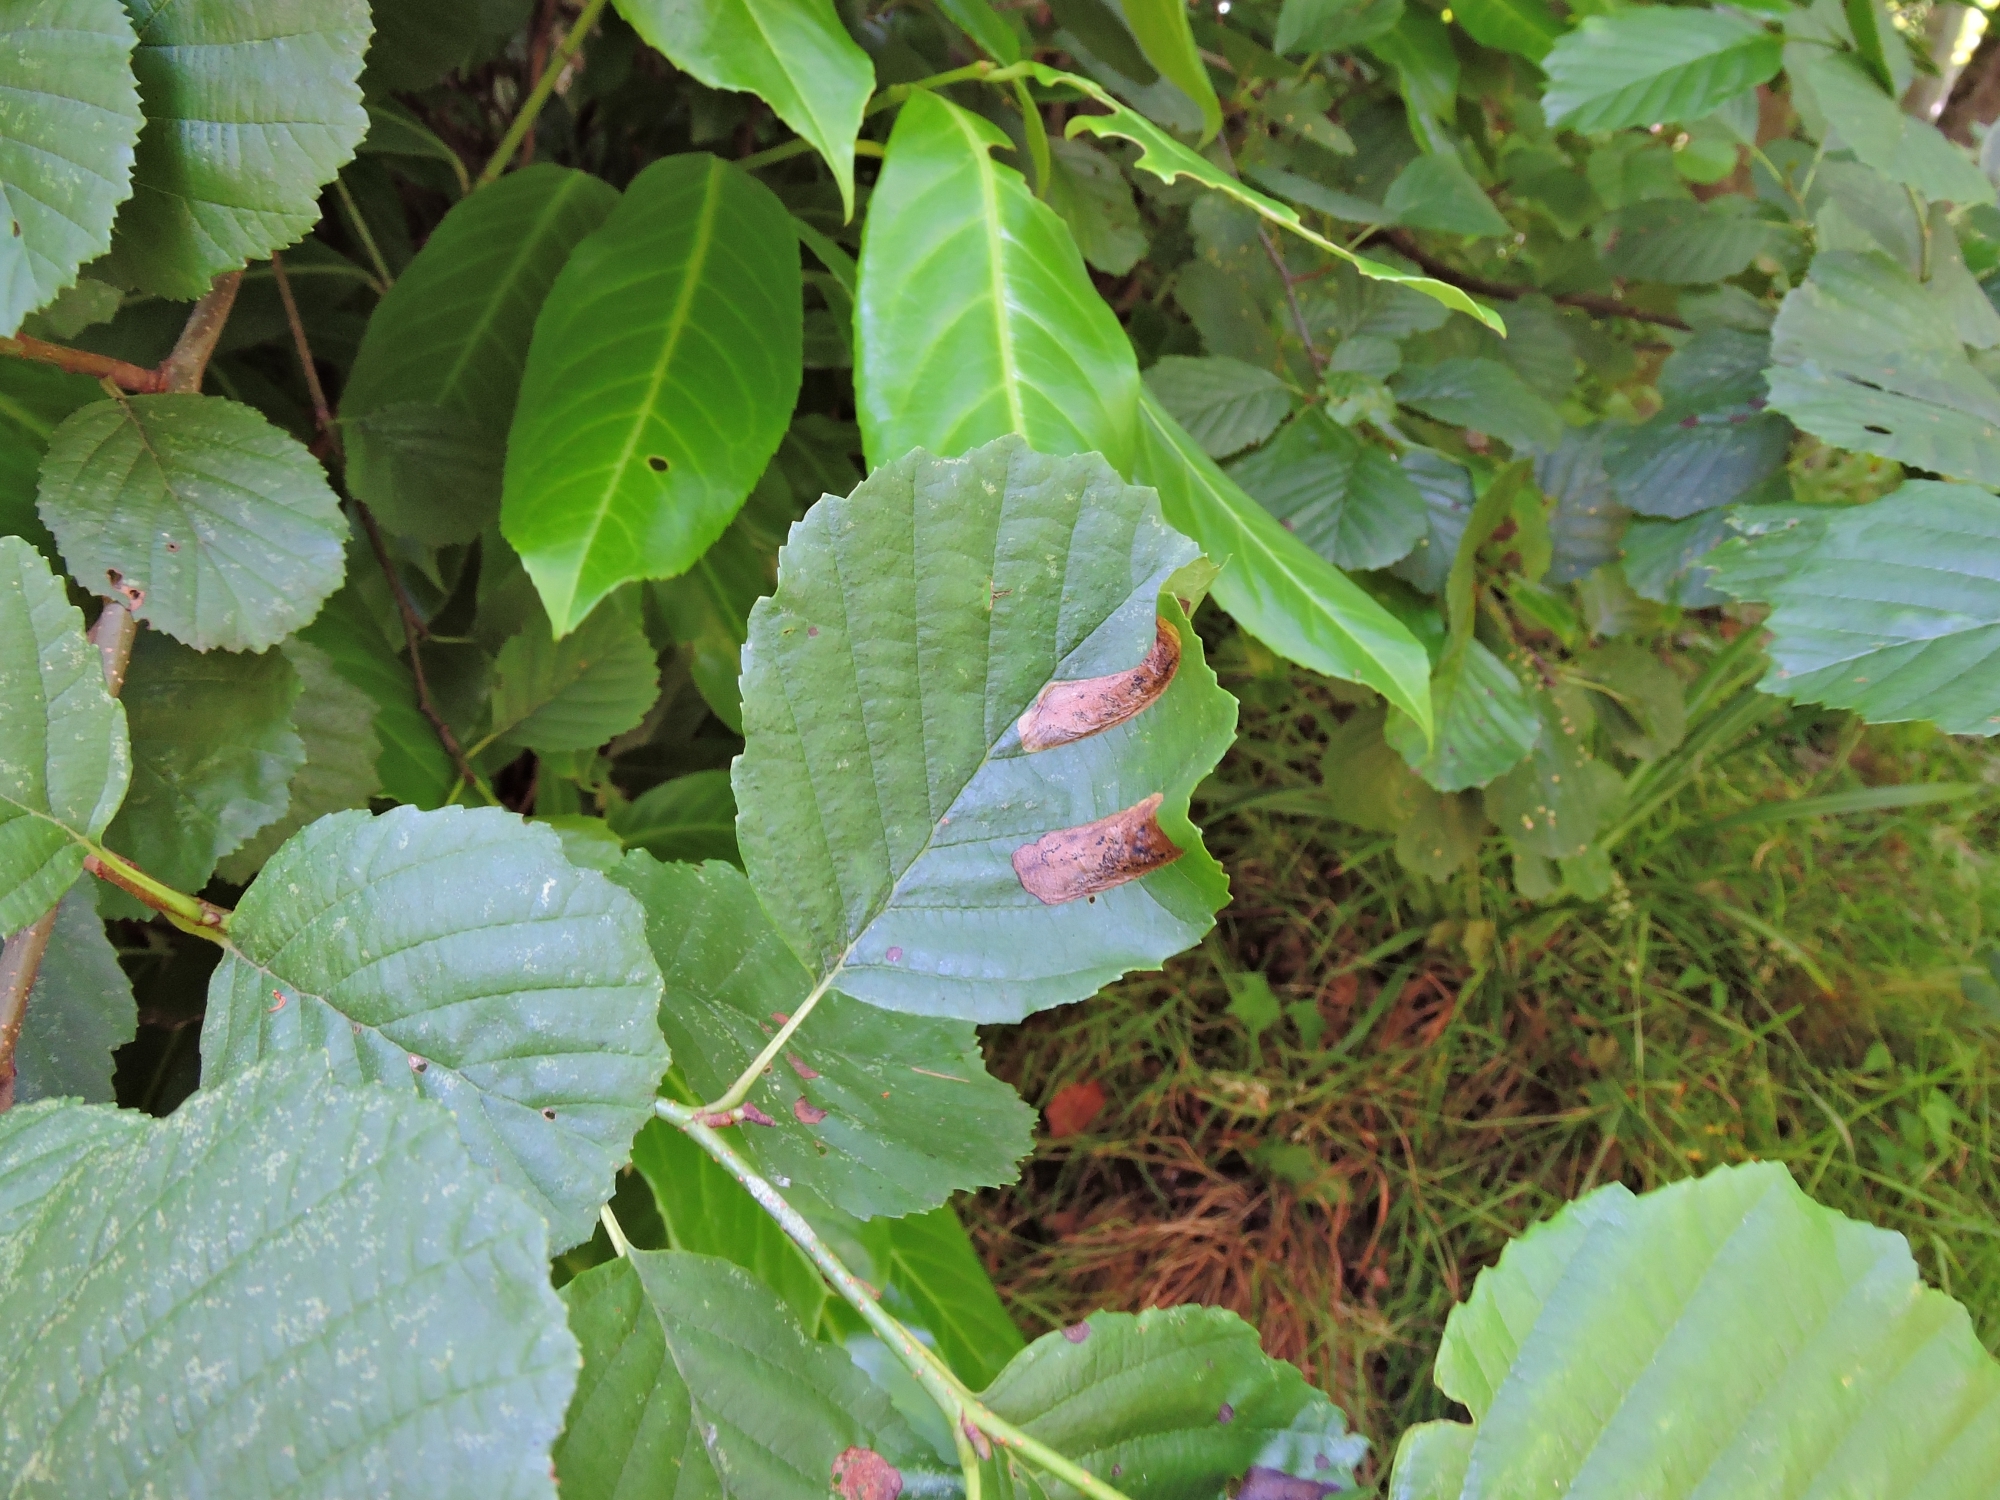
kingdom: Animalia
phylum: Arthropoda
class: Insecta
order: Hymenoptera
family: Tenthredinidae
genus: Fenusa
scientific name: Fenusa dohrnii
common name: European alder leafminer
